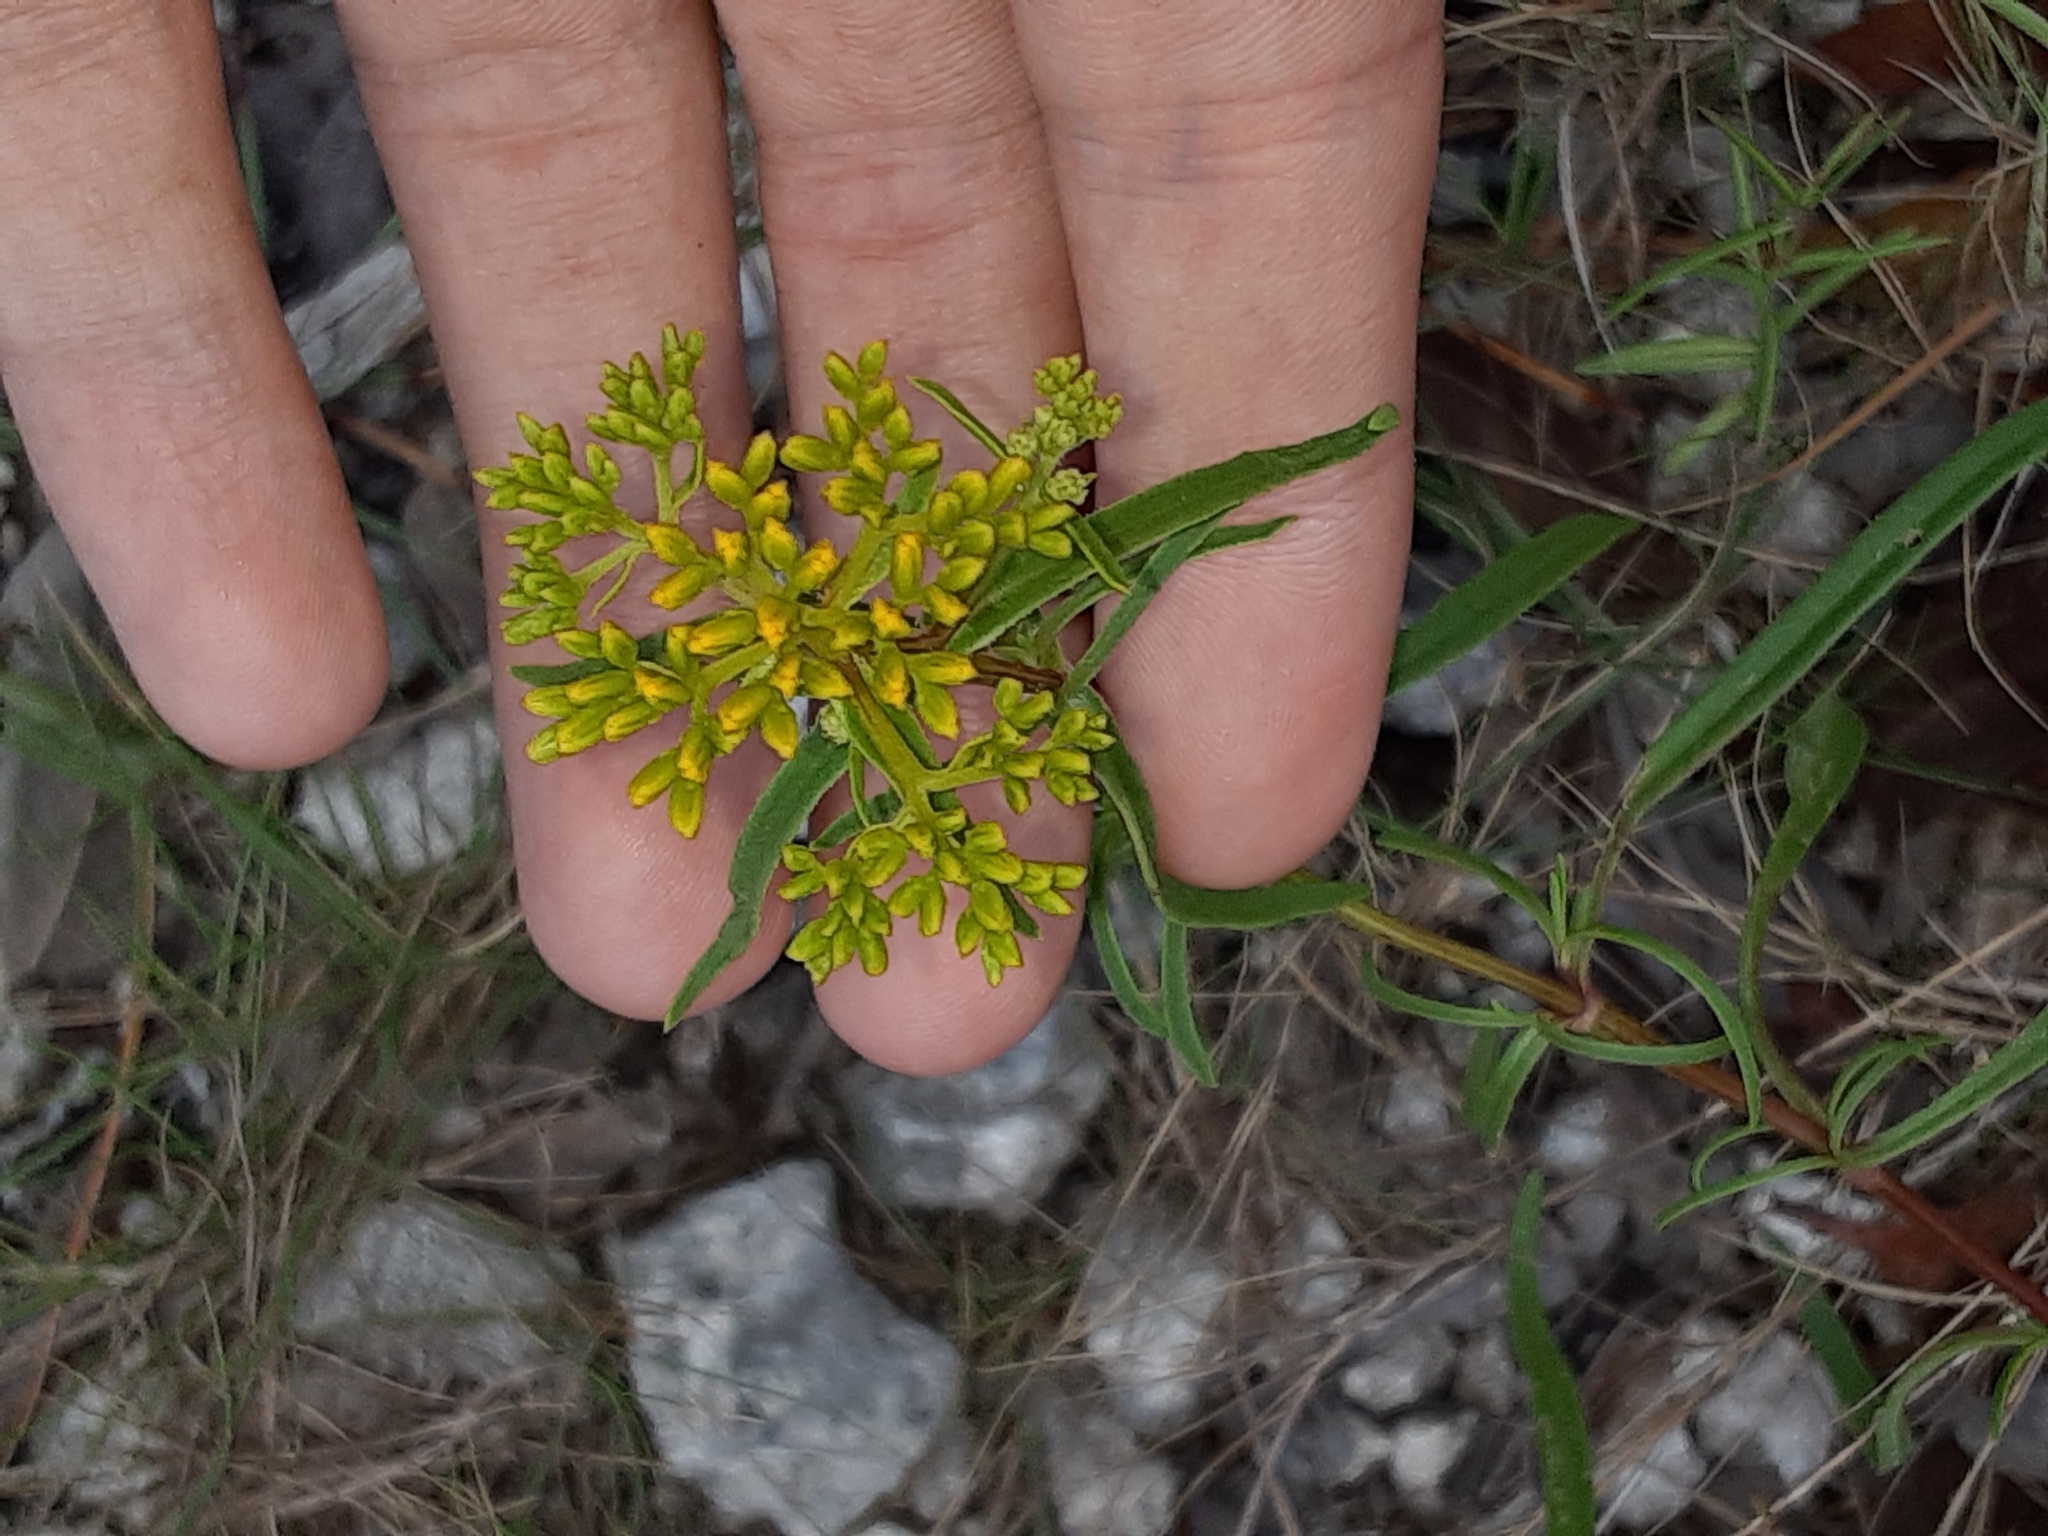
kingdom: Plantae
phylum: Tracheophyta
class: Magnoliopsida
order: Asterales
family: Asteraceae
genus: Flaveria
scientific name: Flaveria linearis
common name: Yellowtop
